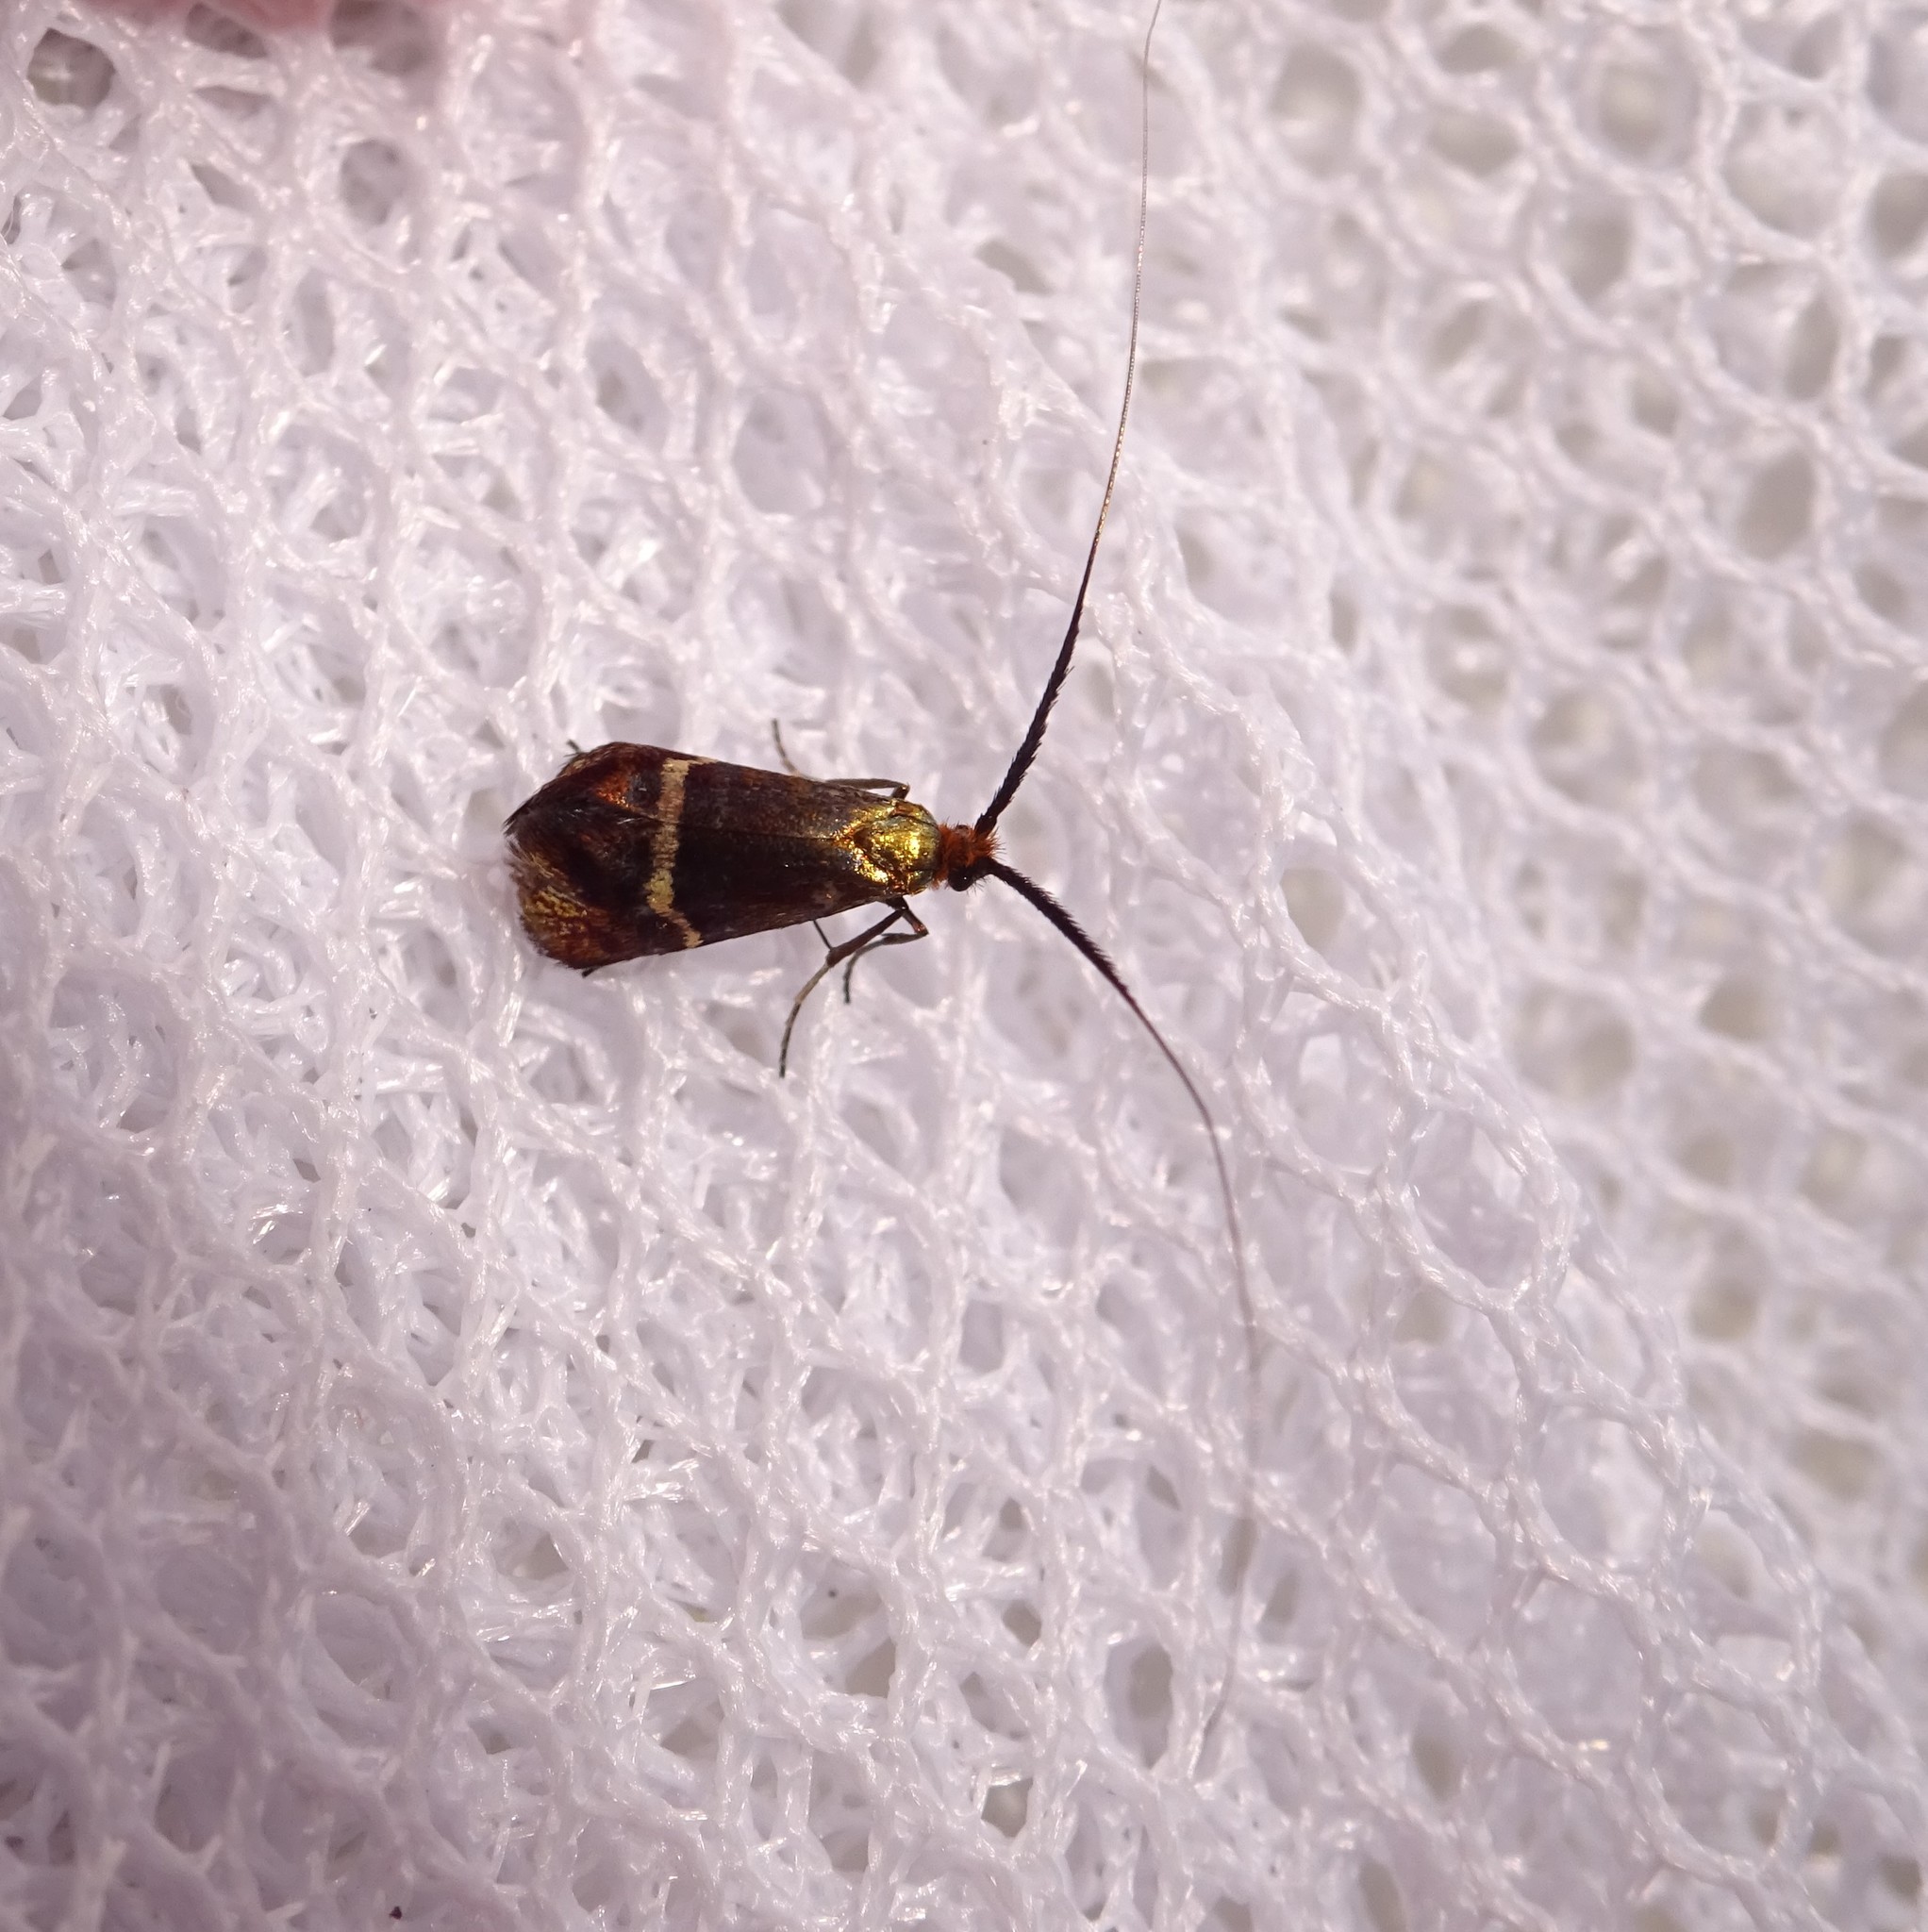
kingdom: Animalia
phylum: Arthropoda
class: Insecta
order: Lepidoptera
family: Adelidae
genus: Adela
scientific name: Adela australis
